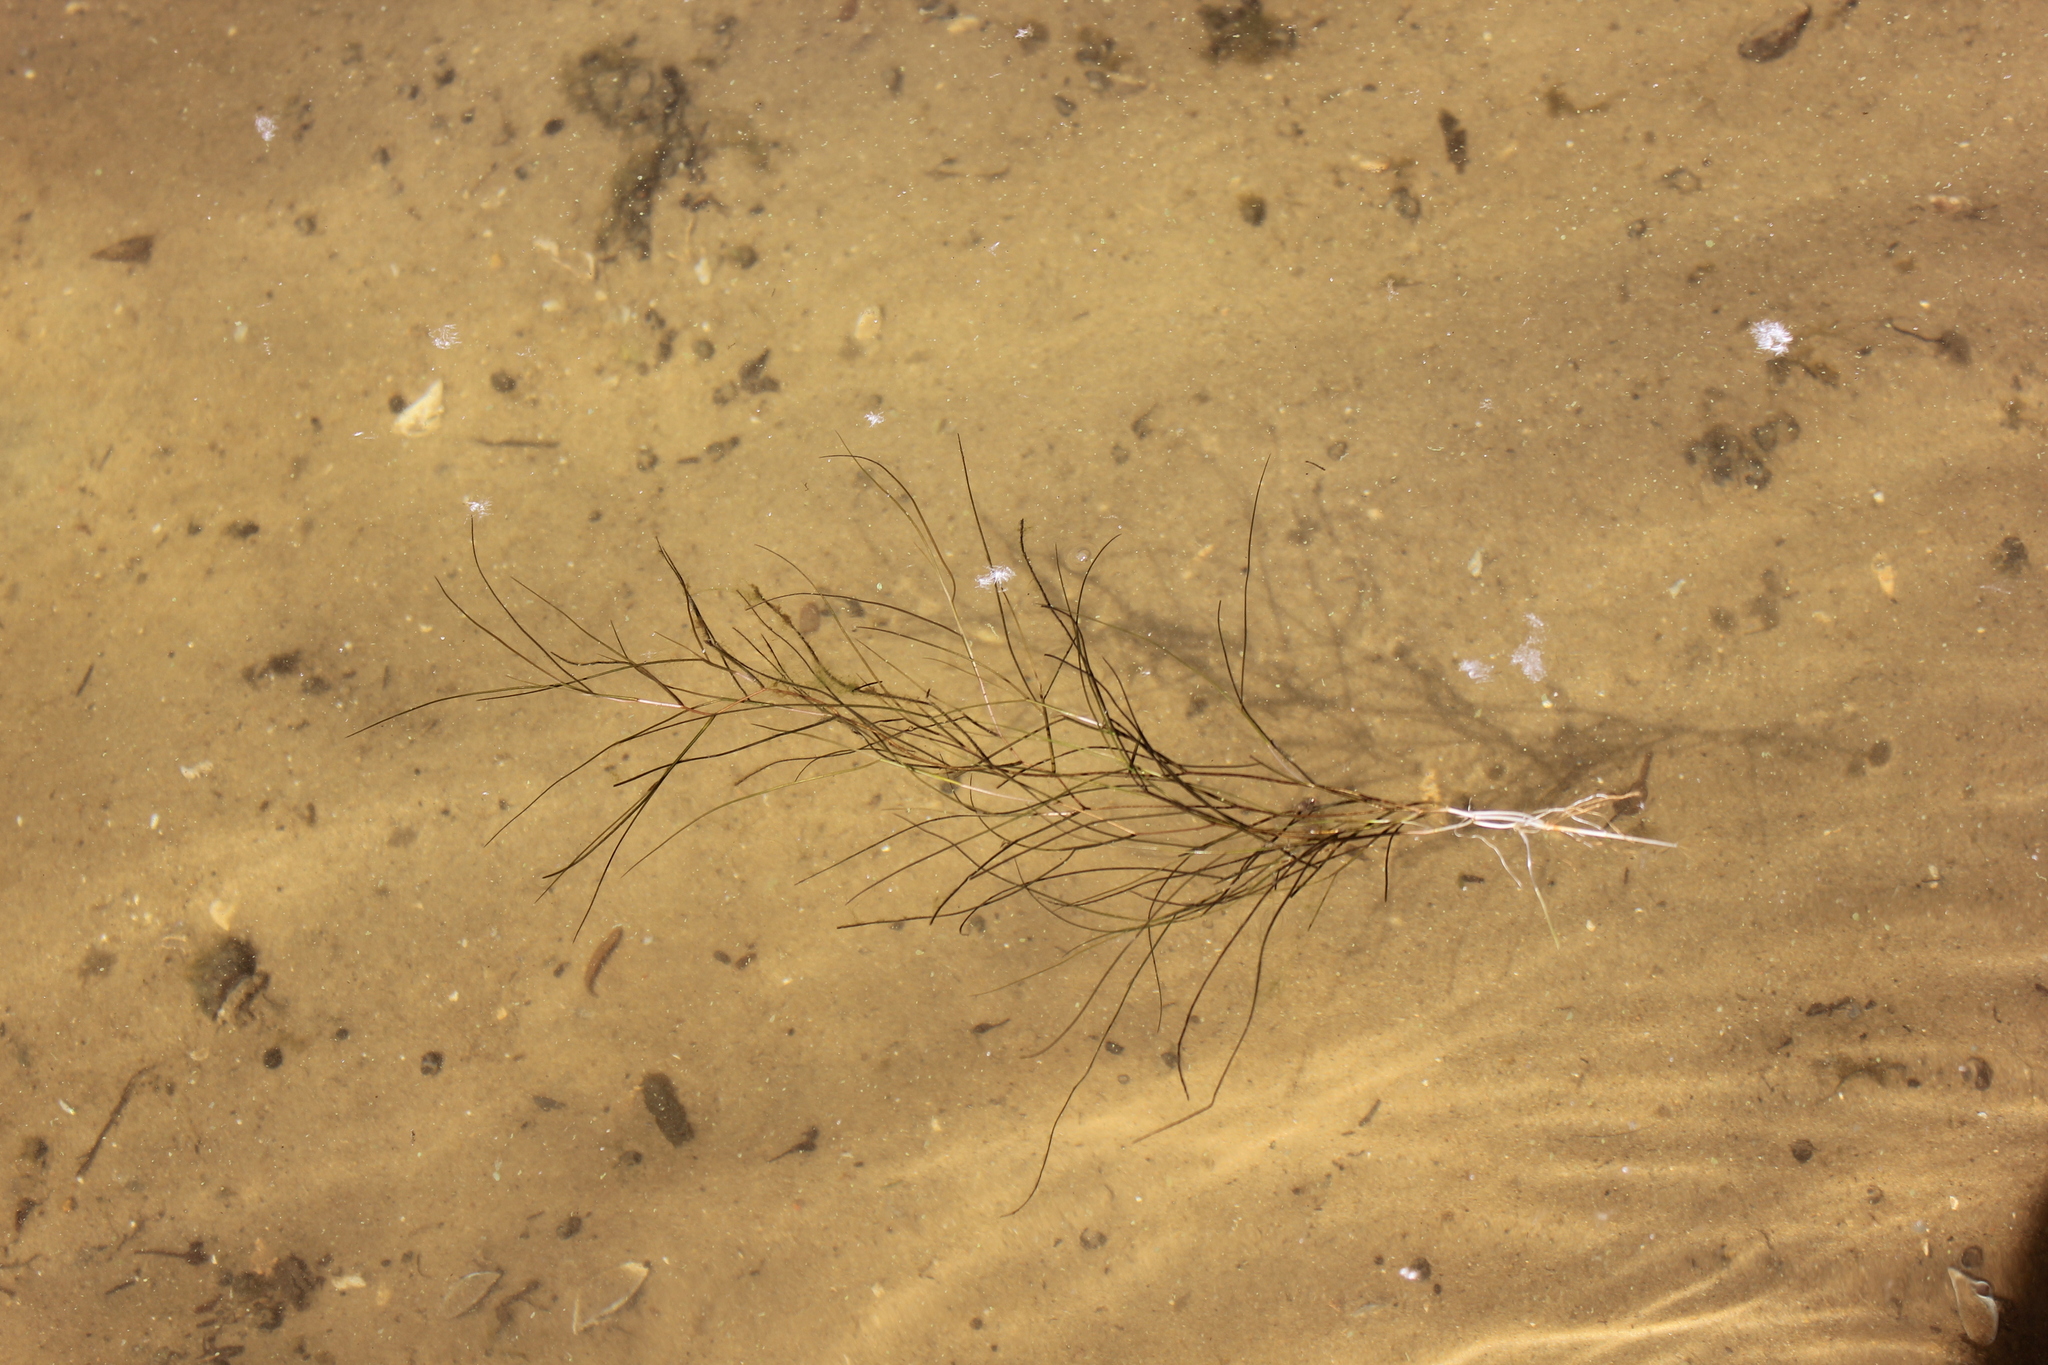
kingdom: Plantae
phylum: Tracheophyta
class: Liliopsida
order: Alismatales
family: Potamogetonaceae
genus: Stuckenia
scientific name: Stuckenia pectinata
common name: Sago pondweed
